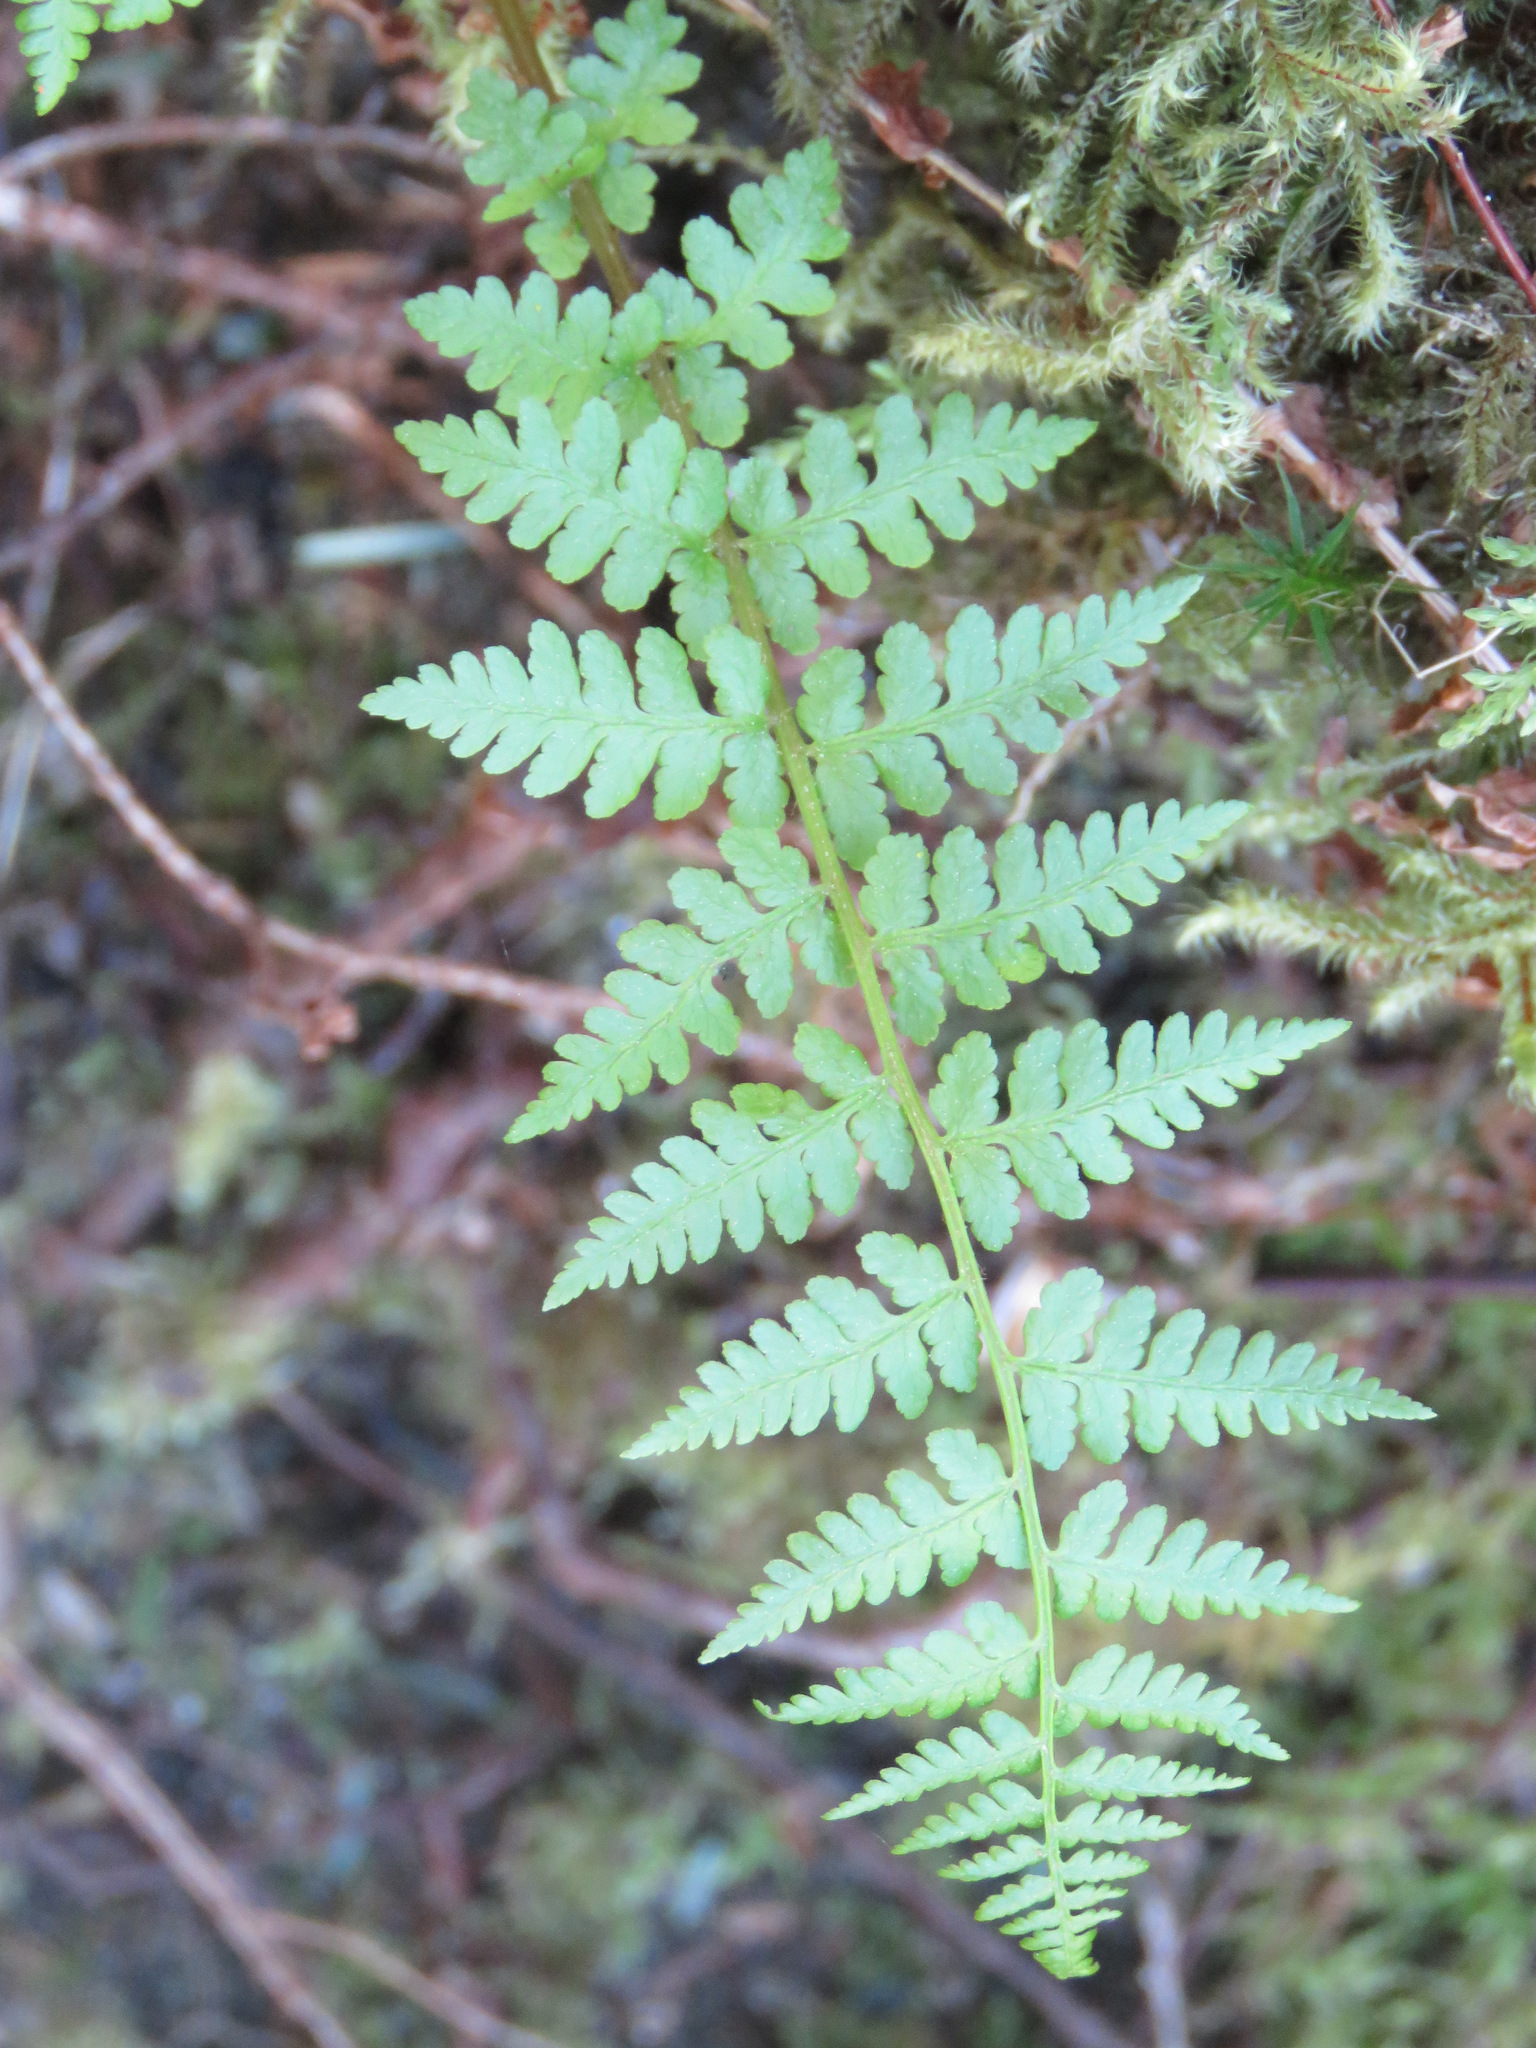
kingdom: Plantae
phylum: Tracheophyta
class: Polypodiopsida
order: Polypodiales
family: Athyriaceae
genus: Athyrium
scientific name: Athyrium filix-femina
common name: Lady fern
